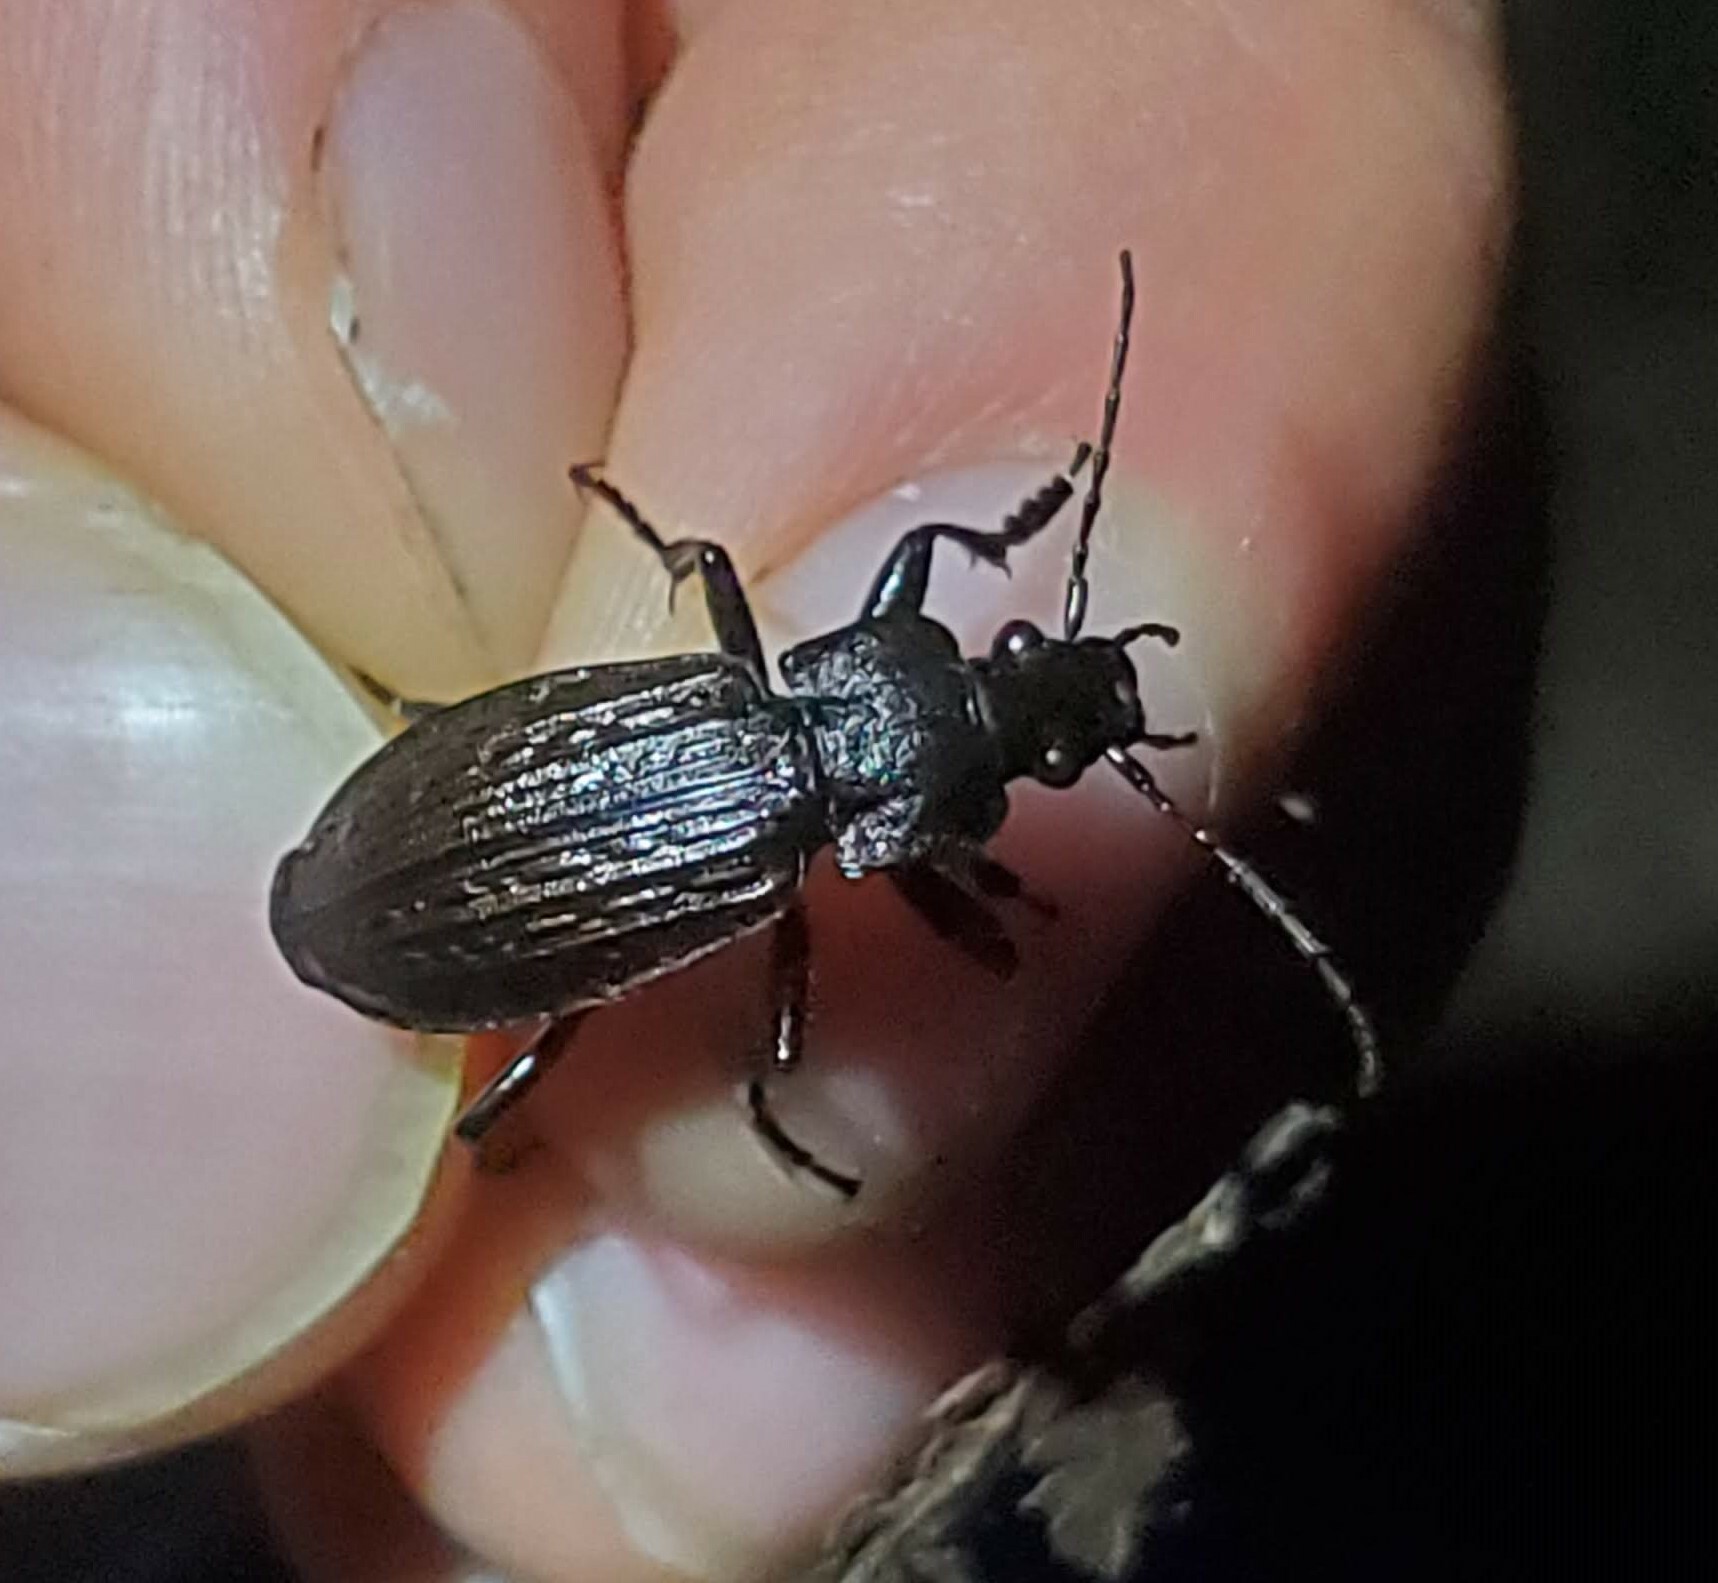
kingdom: Animalia
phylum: Arthropoda
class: Insecta
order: Coleoptera
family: Carabidae
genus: Carabus
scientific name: Carabus granulatus
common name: Granulate ground beetle
